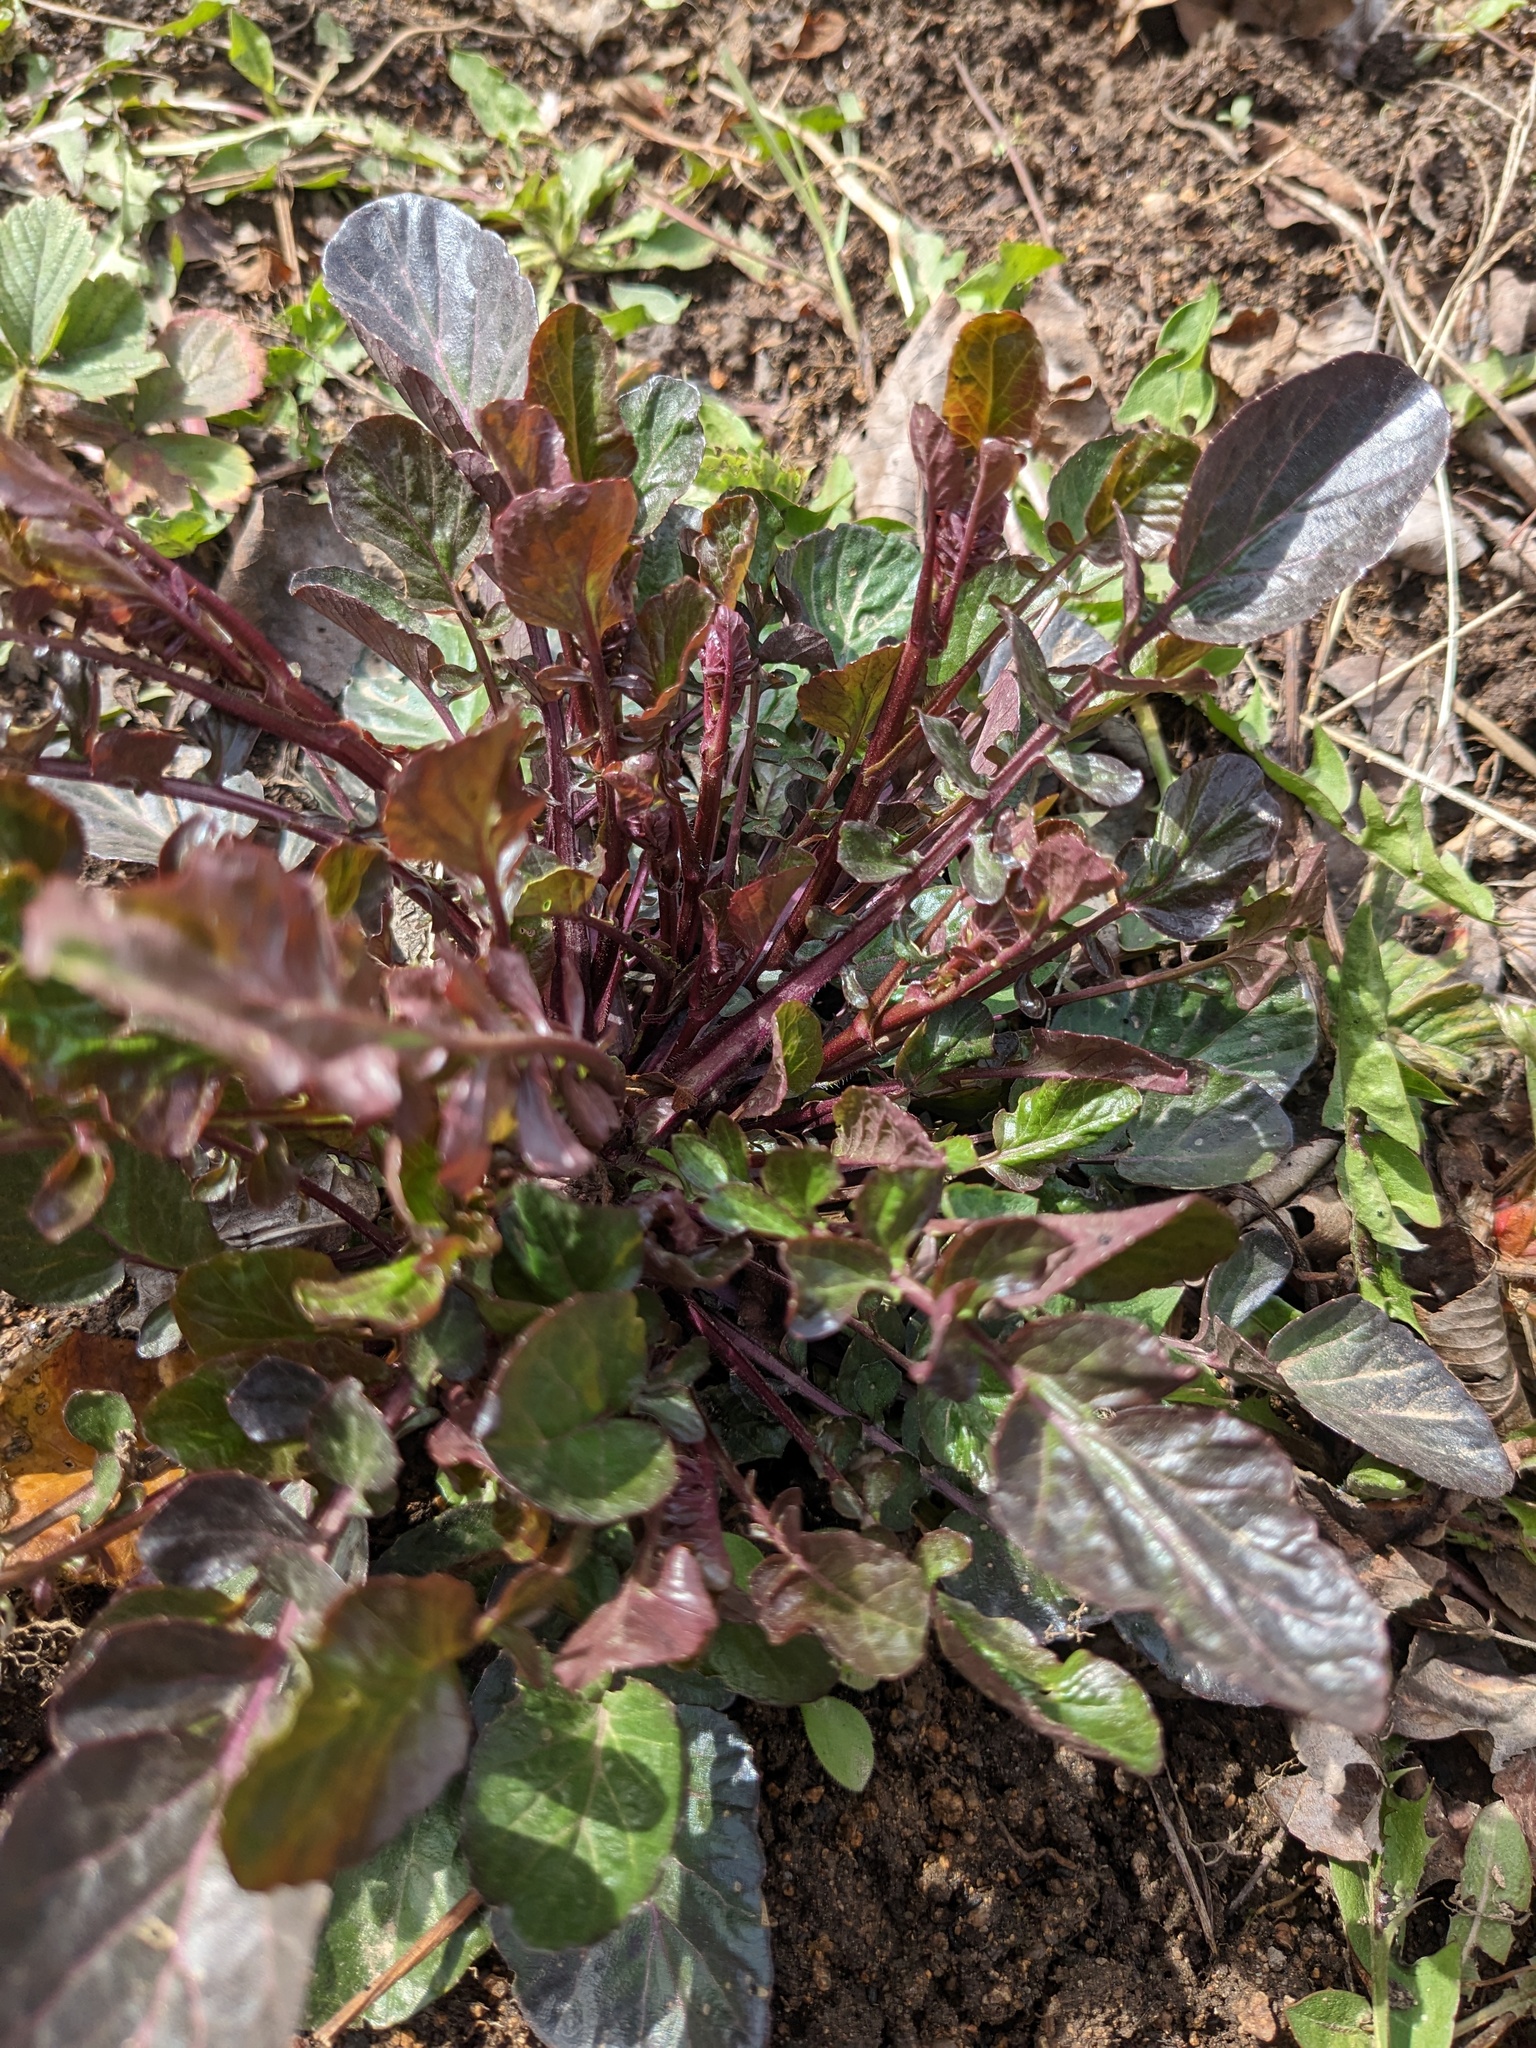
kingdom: Plantae
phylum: Tracheophyta
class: Magnoliopsida
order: Brassicales
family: Brassicaceae
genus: Barbarea
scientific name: Barbarea orthoceras
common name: American wintercress
